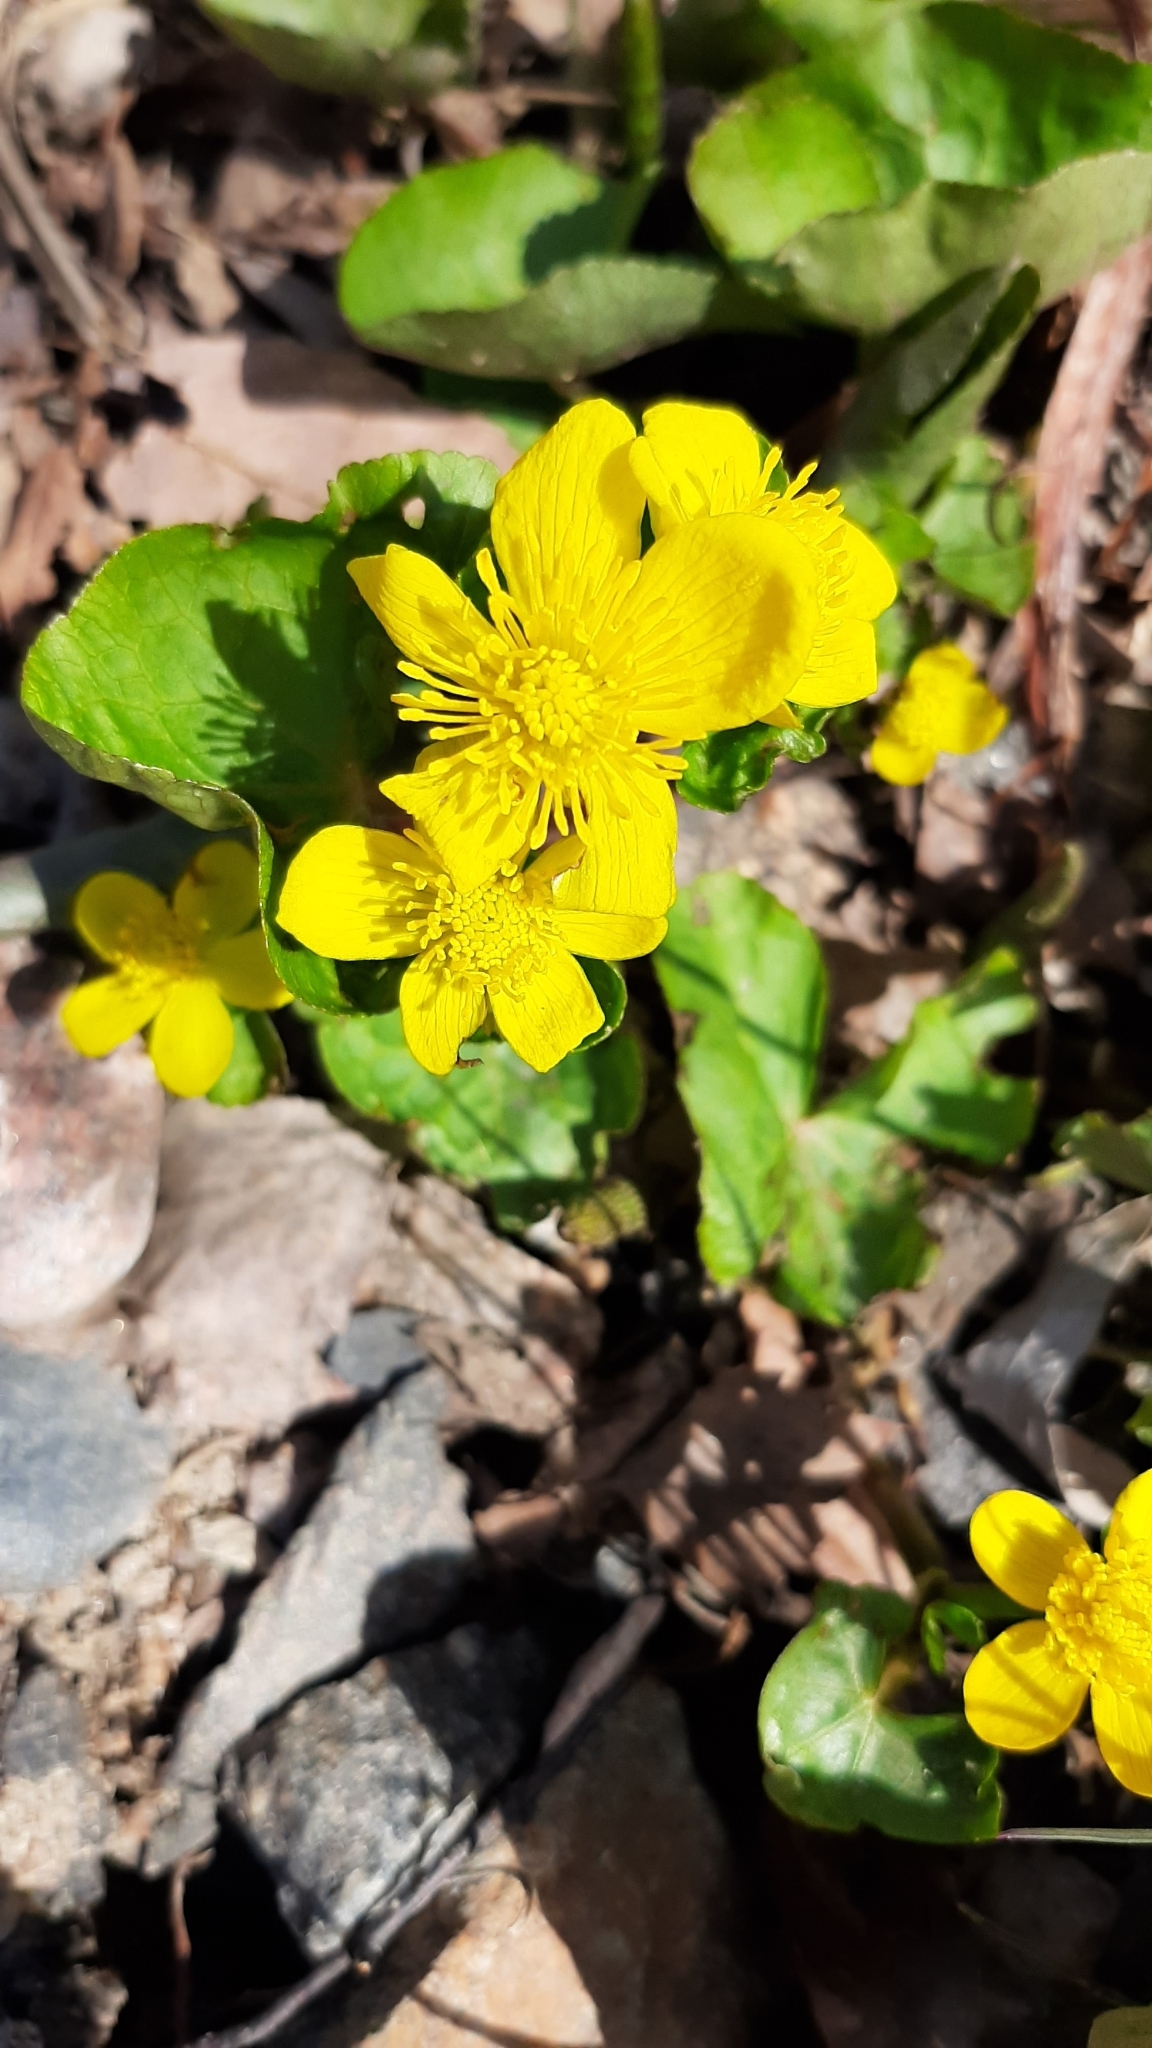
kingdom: Plantae
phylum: Tracheophyta
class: Magnoliopsida
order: Ranunculales
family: Ranunculaceae
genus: Caltha
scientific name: Caltha palustris
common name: Marsh marigold
